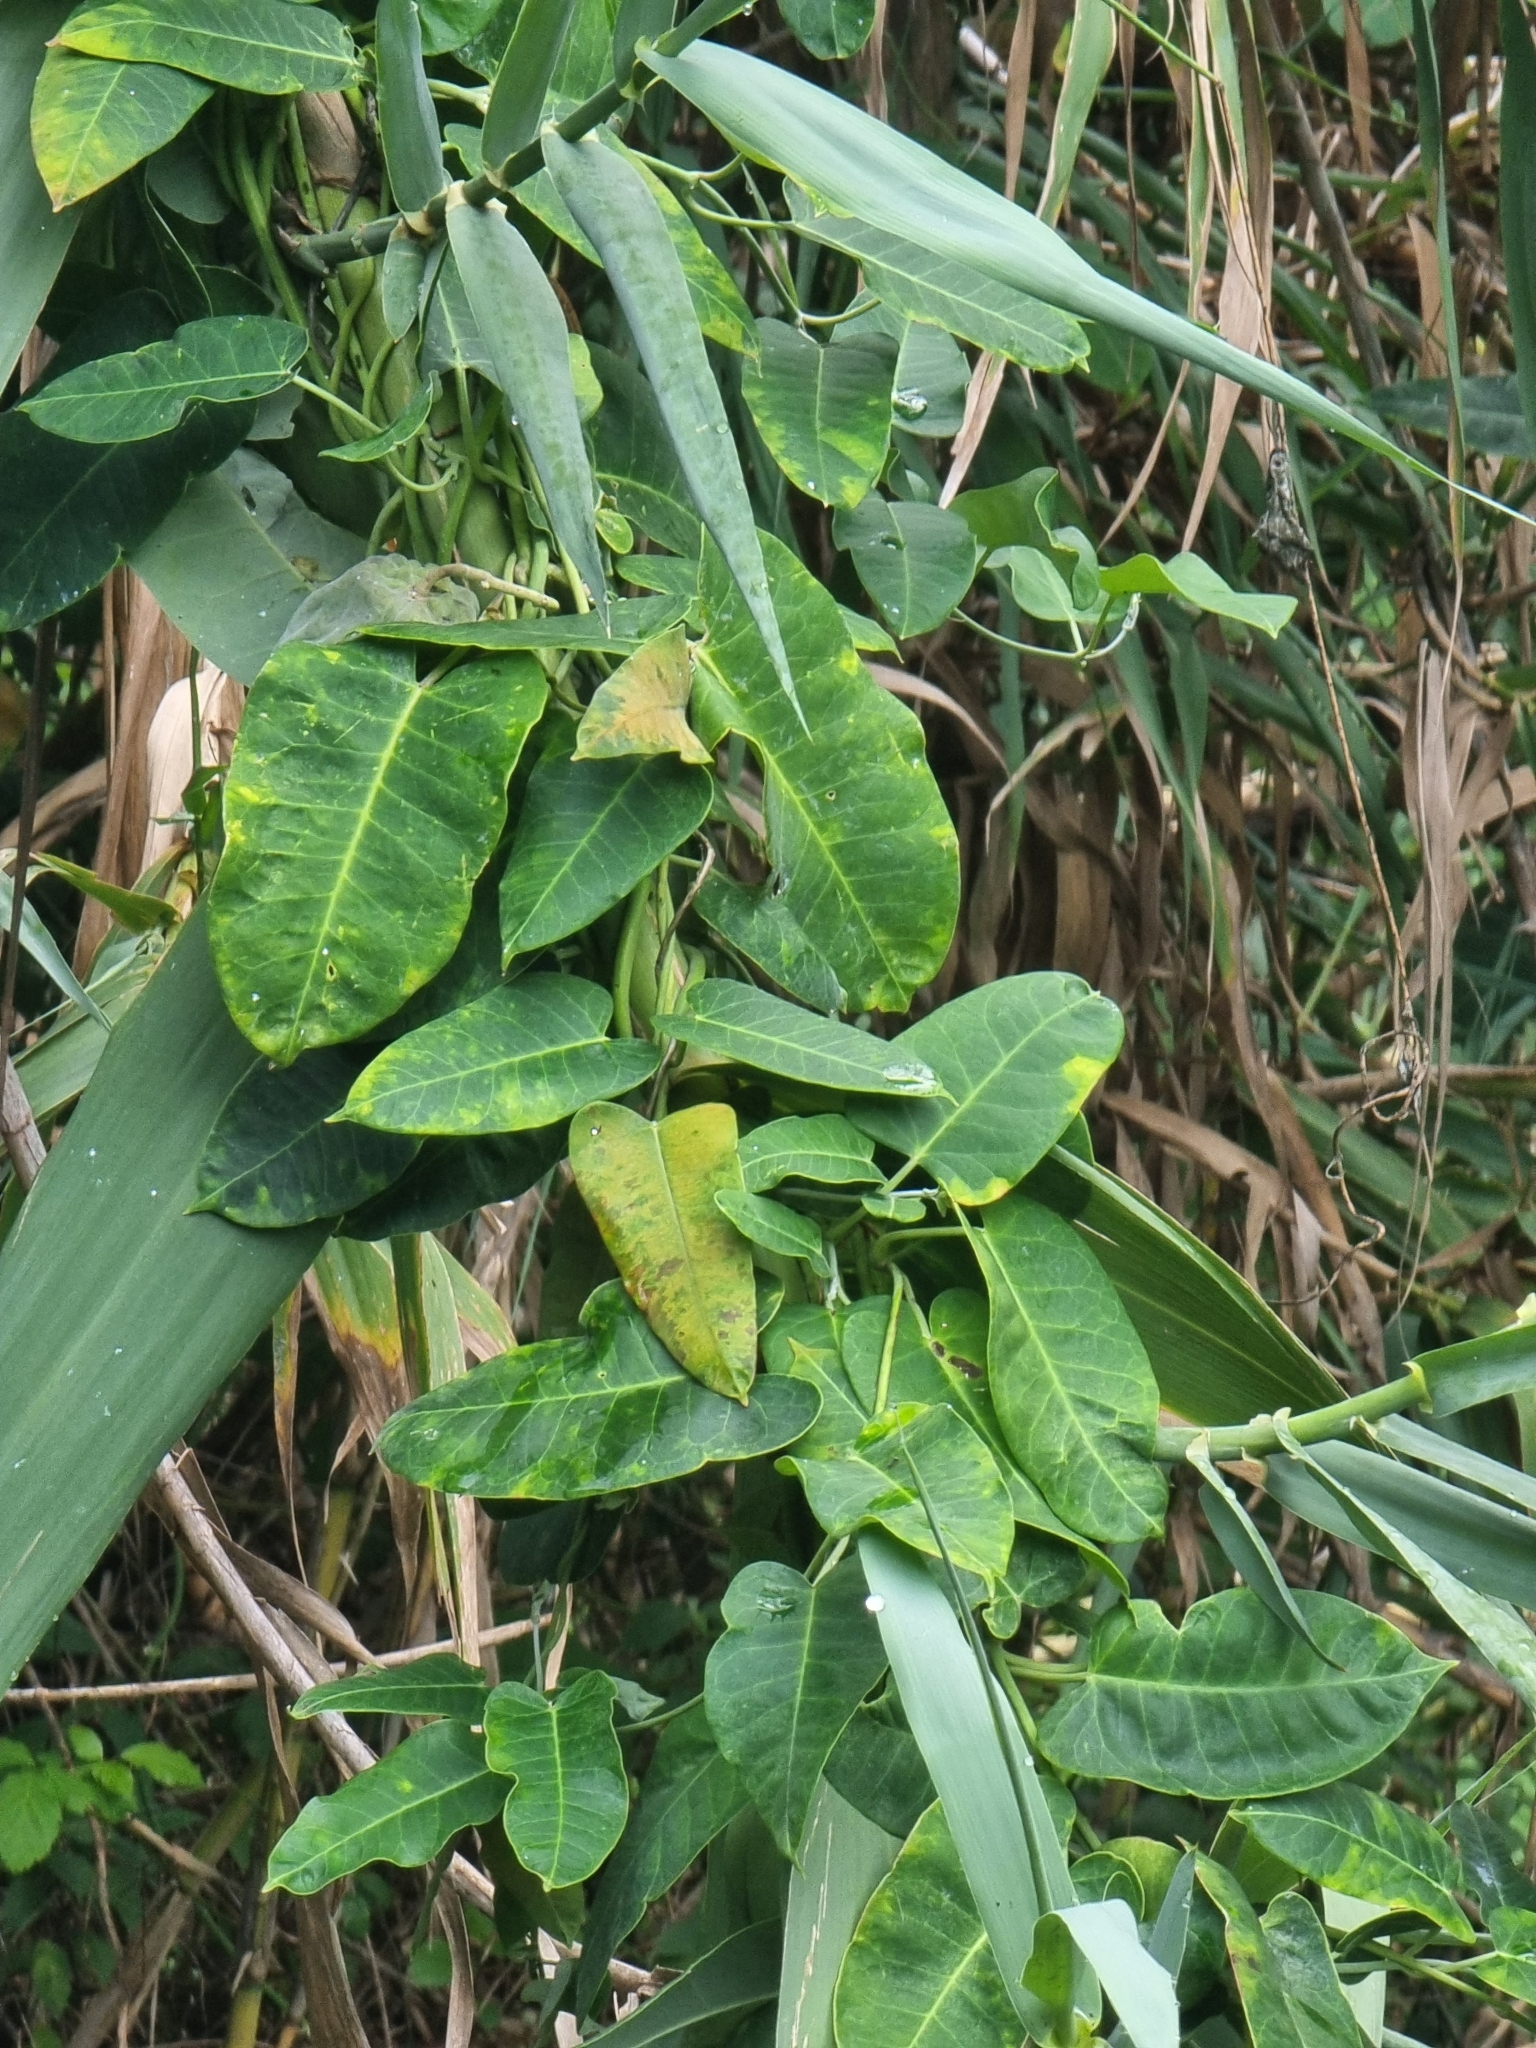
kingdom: Plantae
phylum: Tracheophyta
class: Magnoliopsida
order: Gentianales
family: Apocynaceae
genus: Araujia
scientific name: Araujia sericifera
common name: White bladderflower
